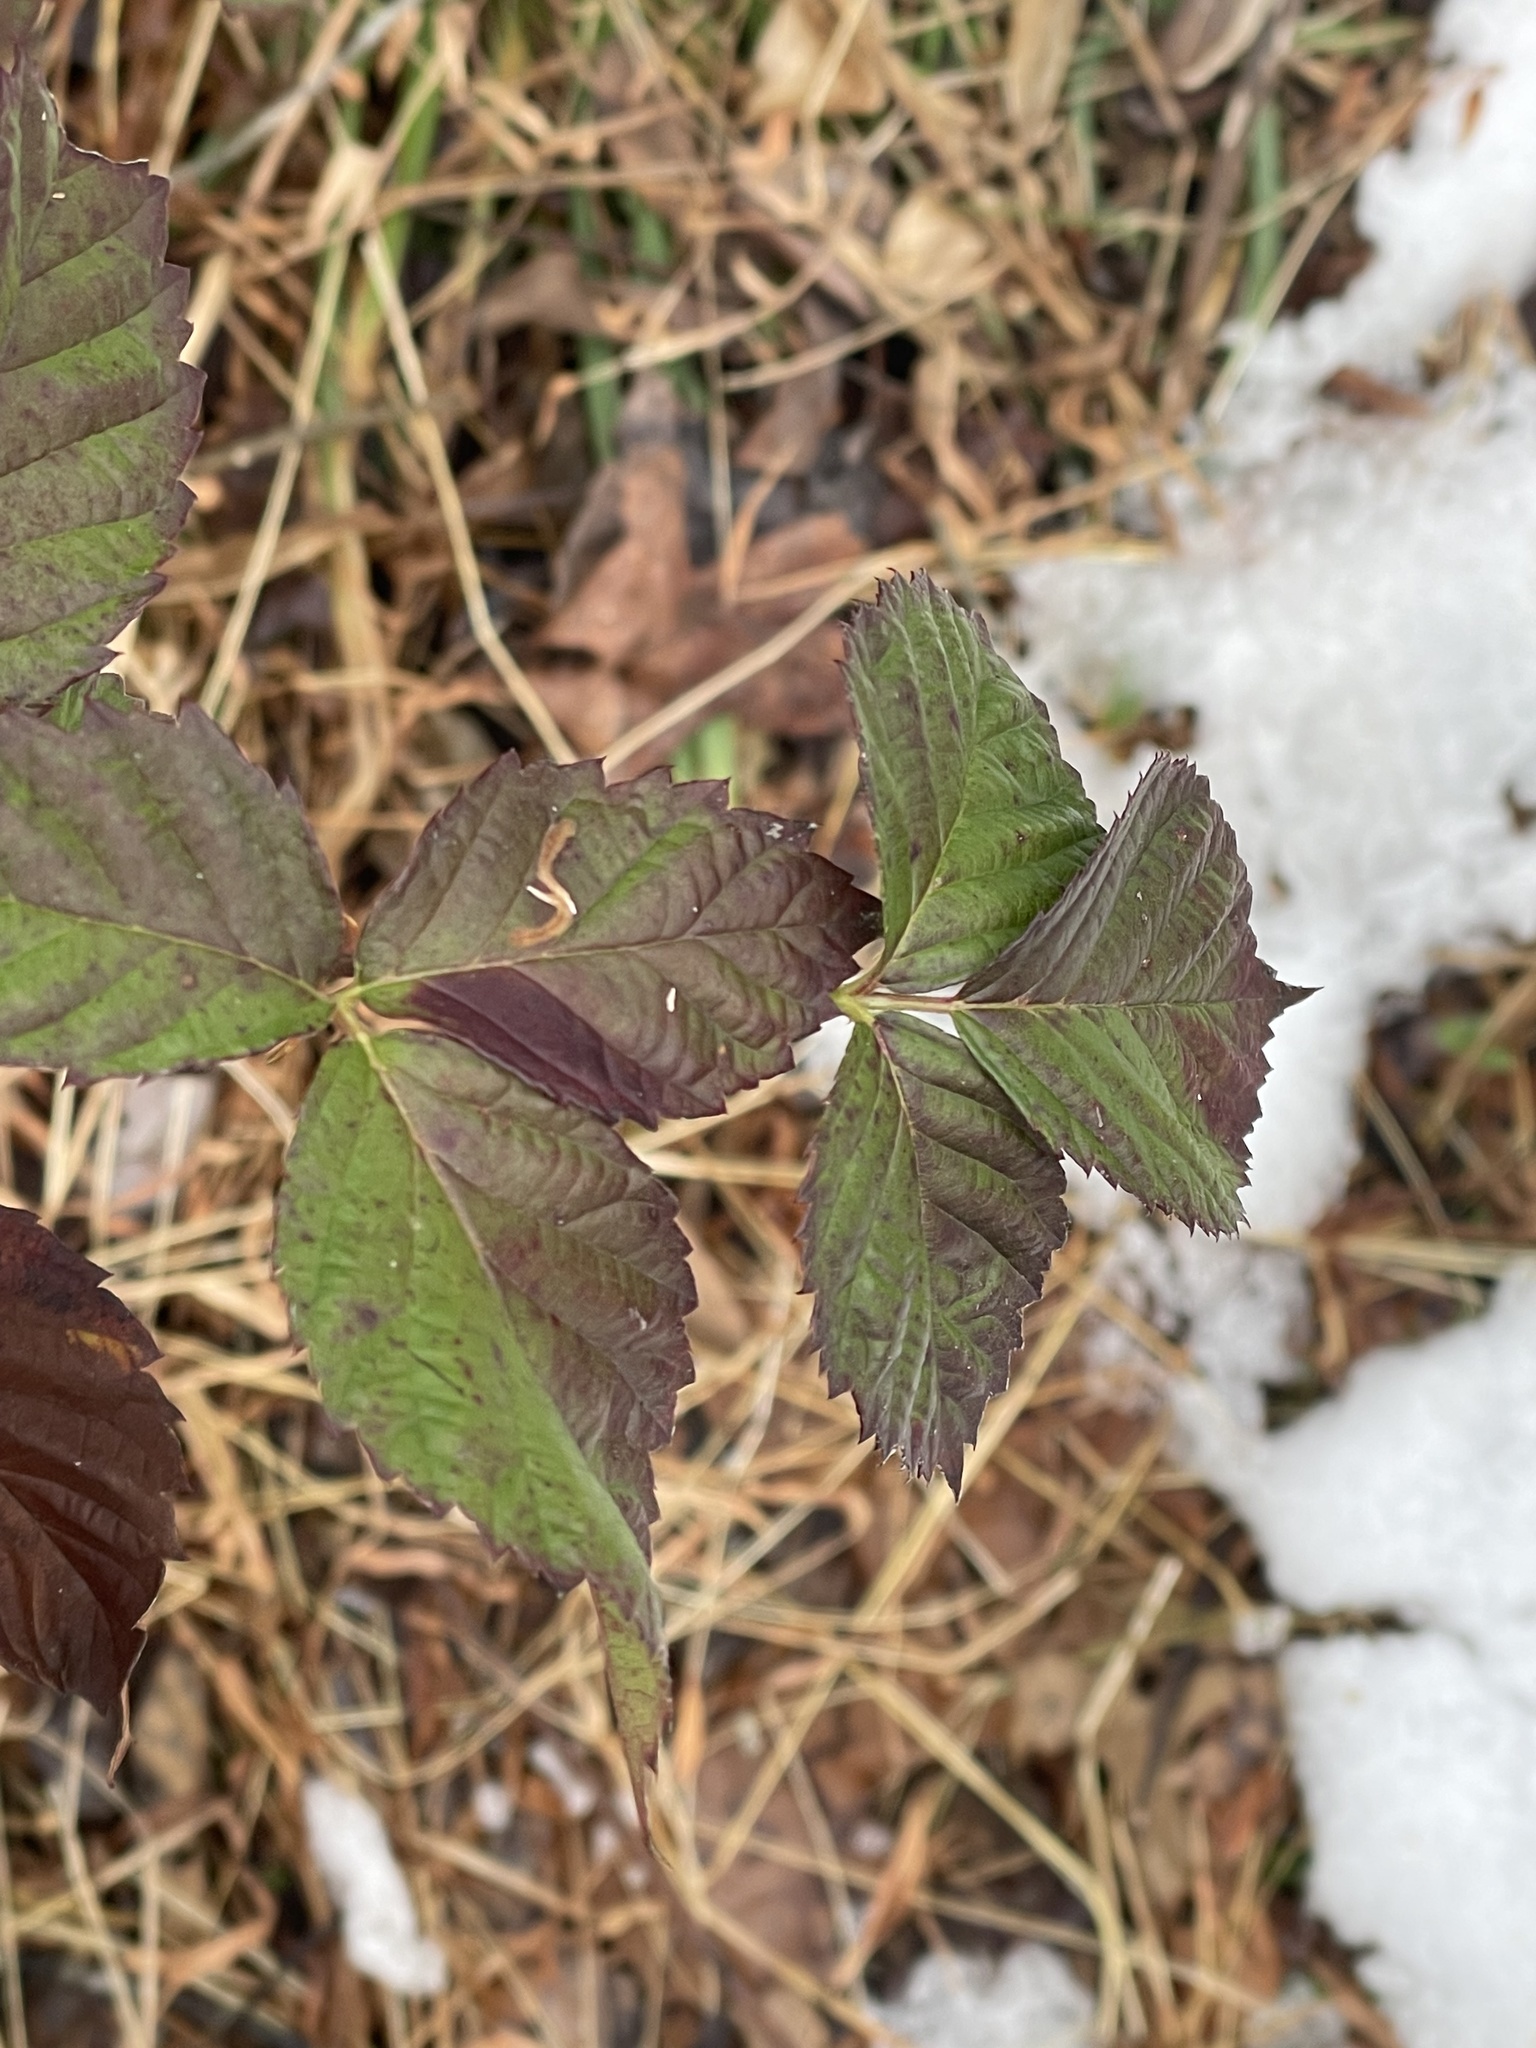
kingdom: Animalia
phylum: Arthropoda
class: Insecta
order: Hymenoptera
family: Cynipidae
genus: Diastrophus
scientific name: Diastrophus
